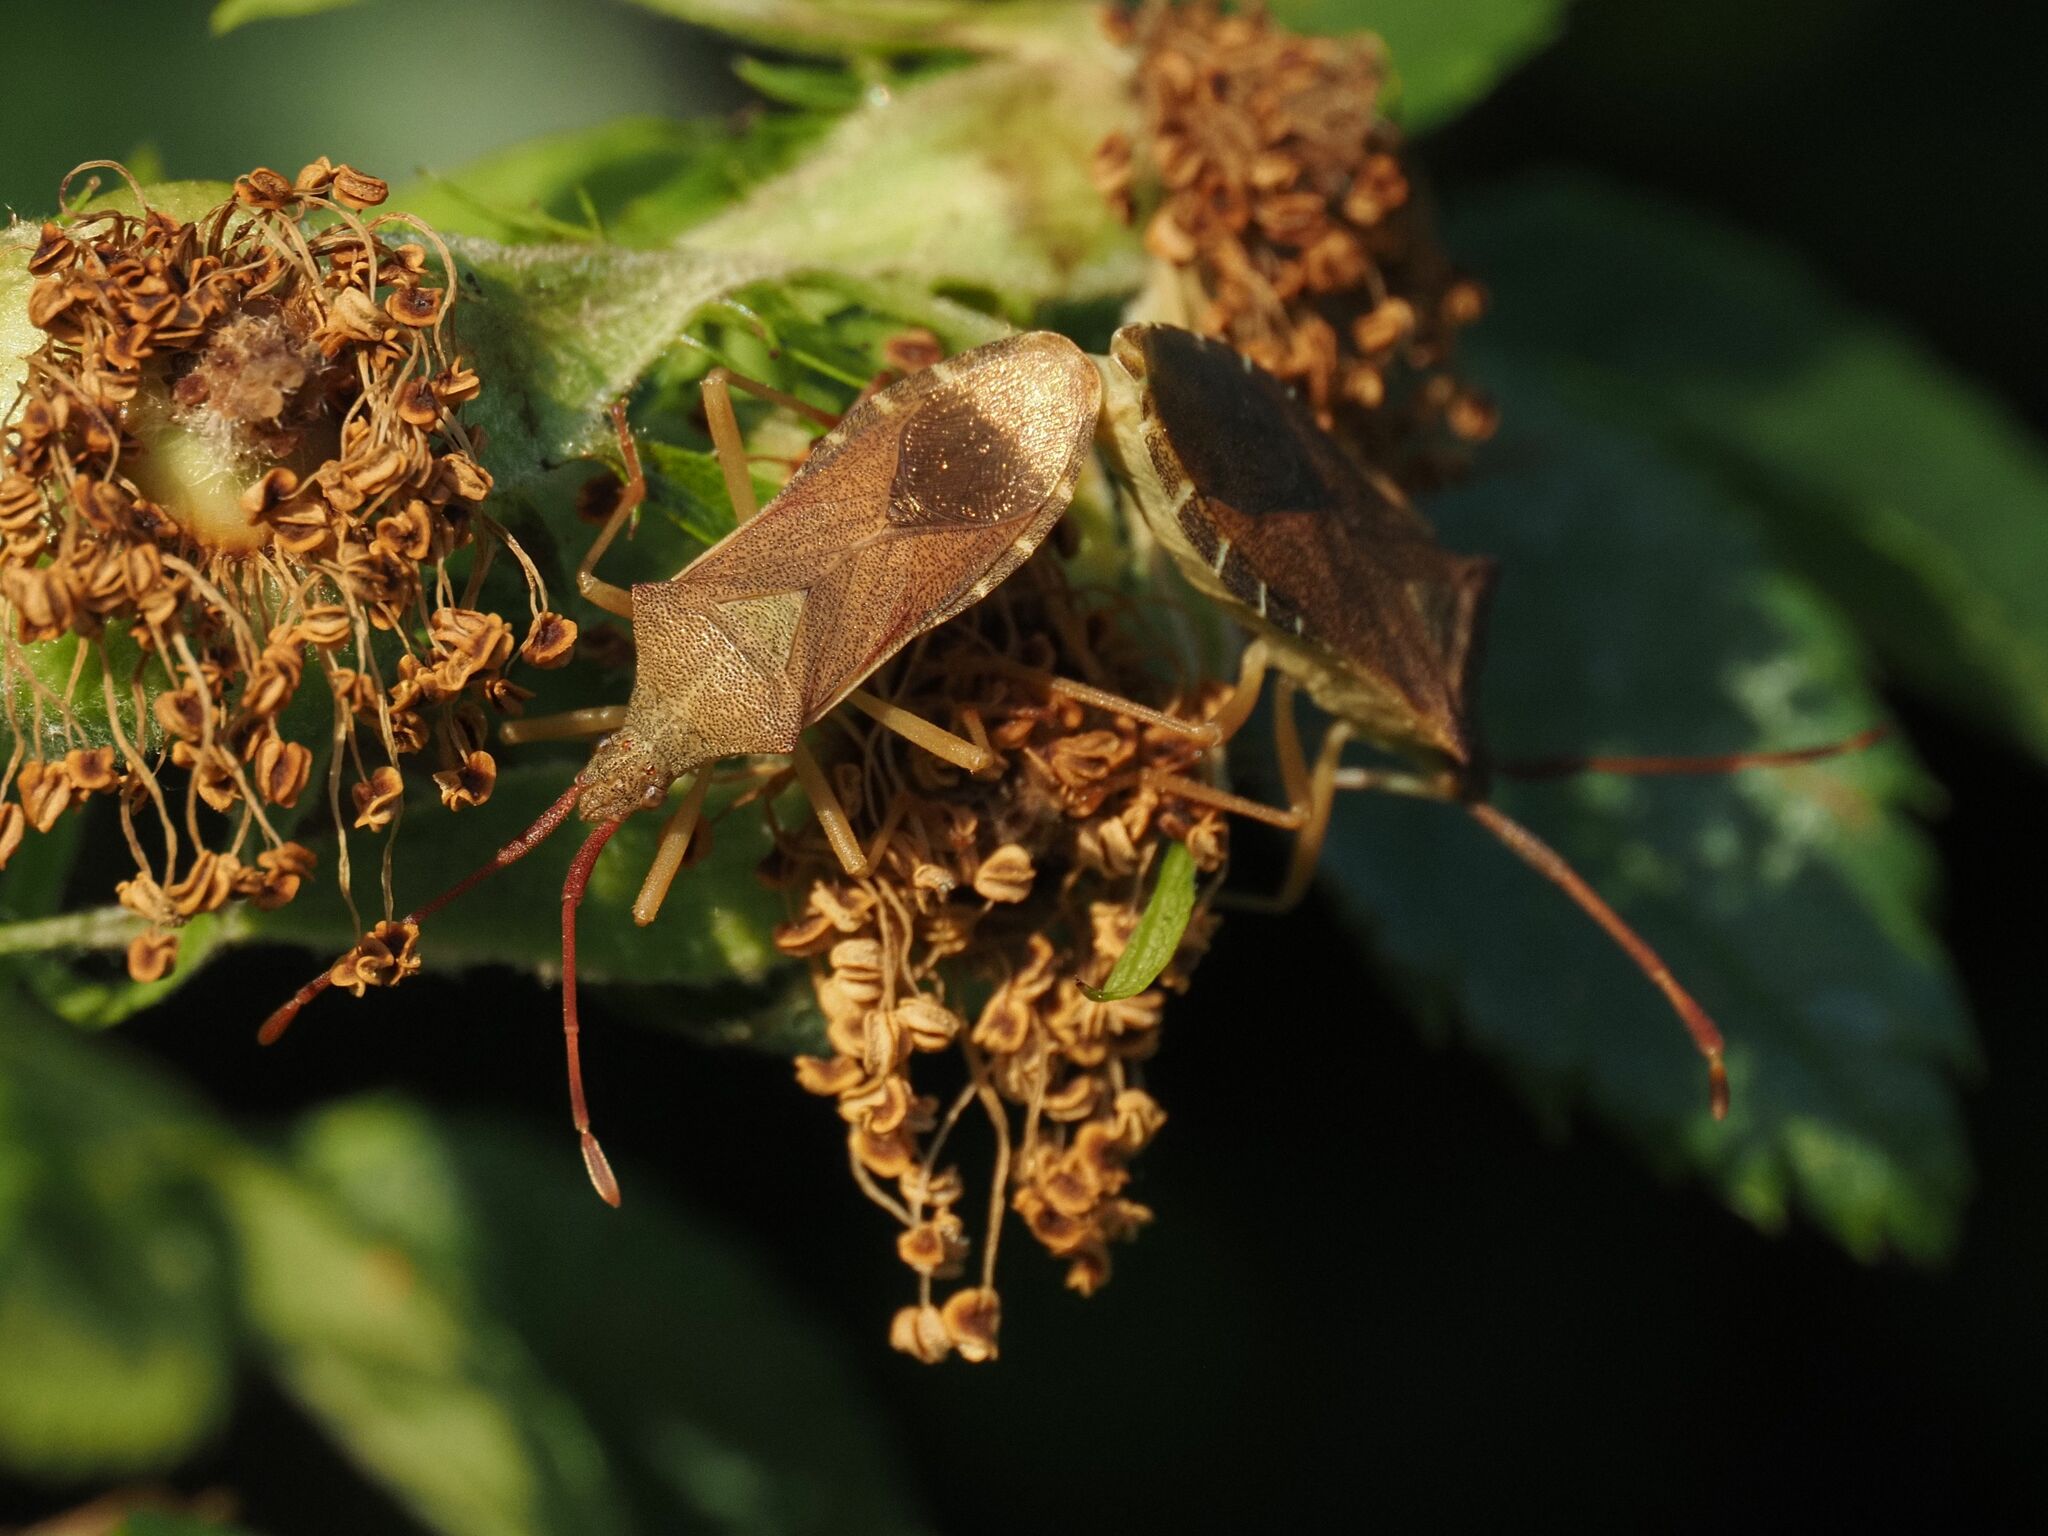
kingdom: Animalia
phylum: Arthropoda
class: Insecta
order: Hemiptera
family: Coreidae
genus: Gonocerus
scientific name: Gonocerus acuteangulatus
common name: Box bug
